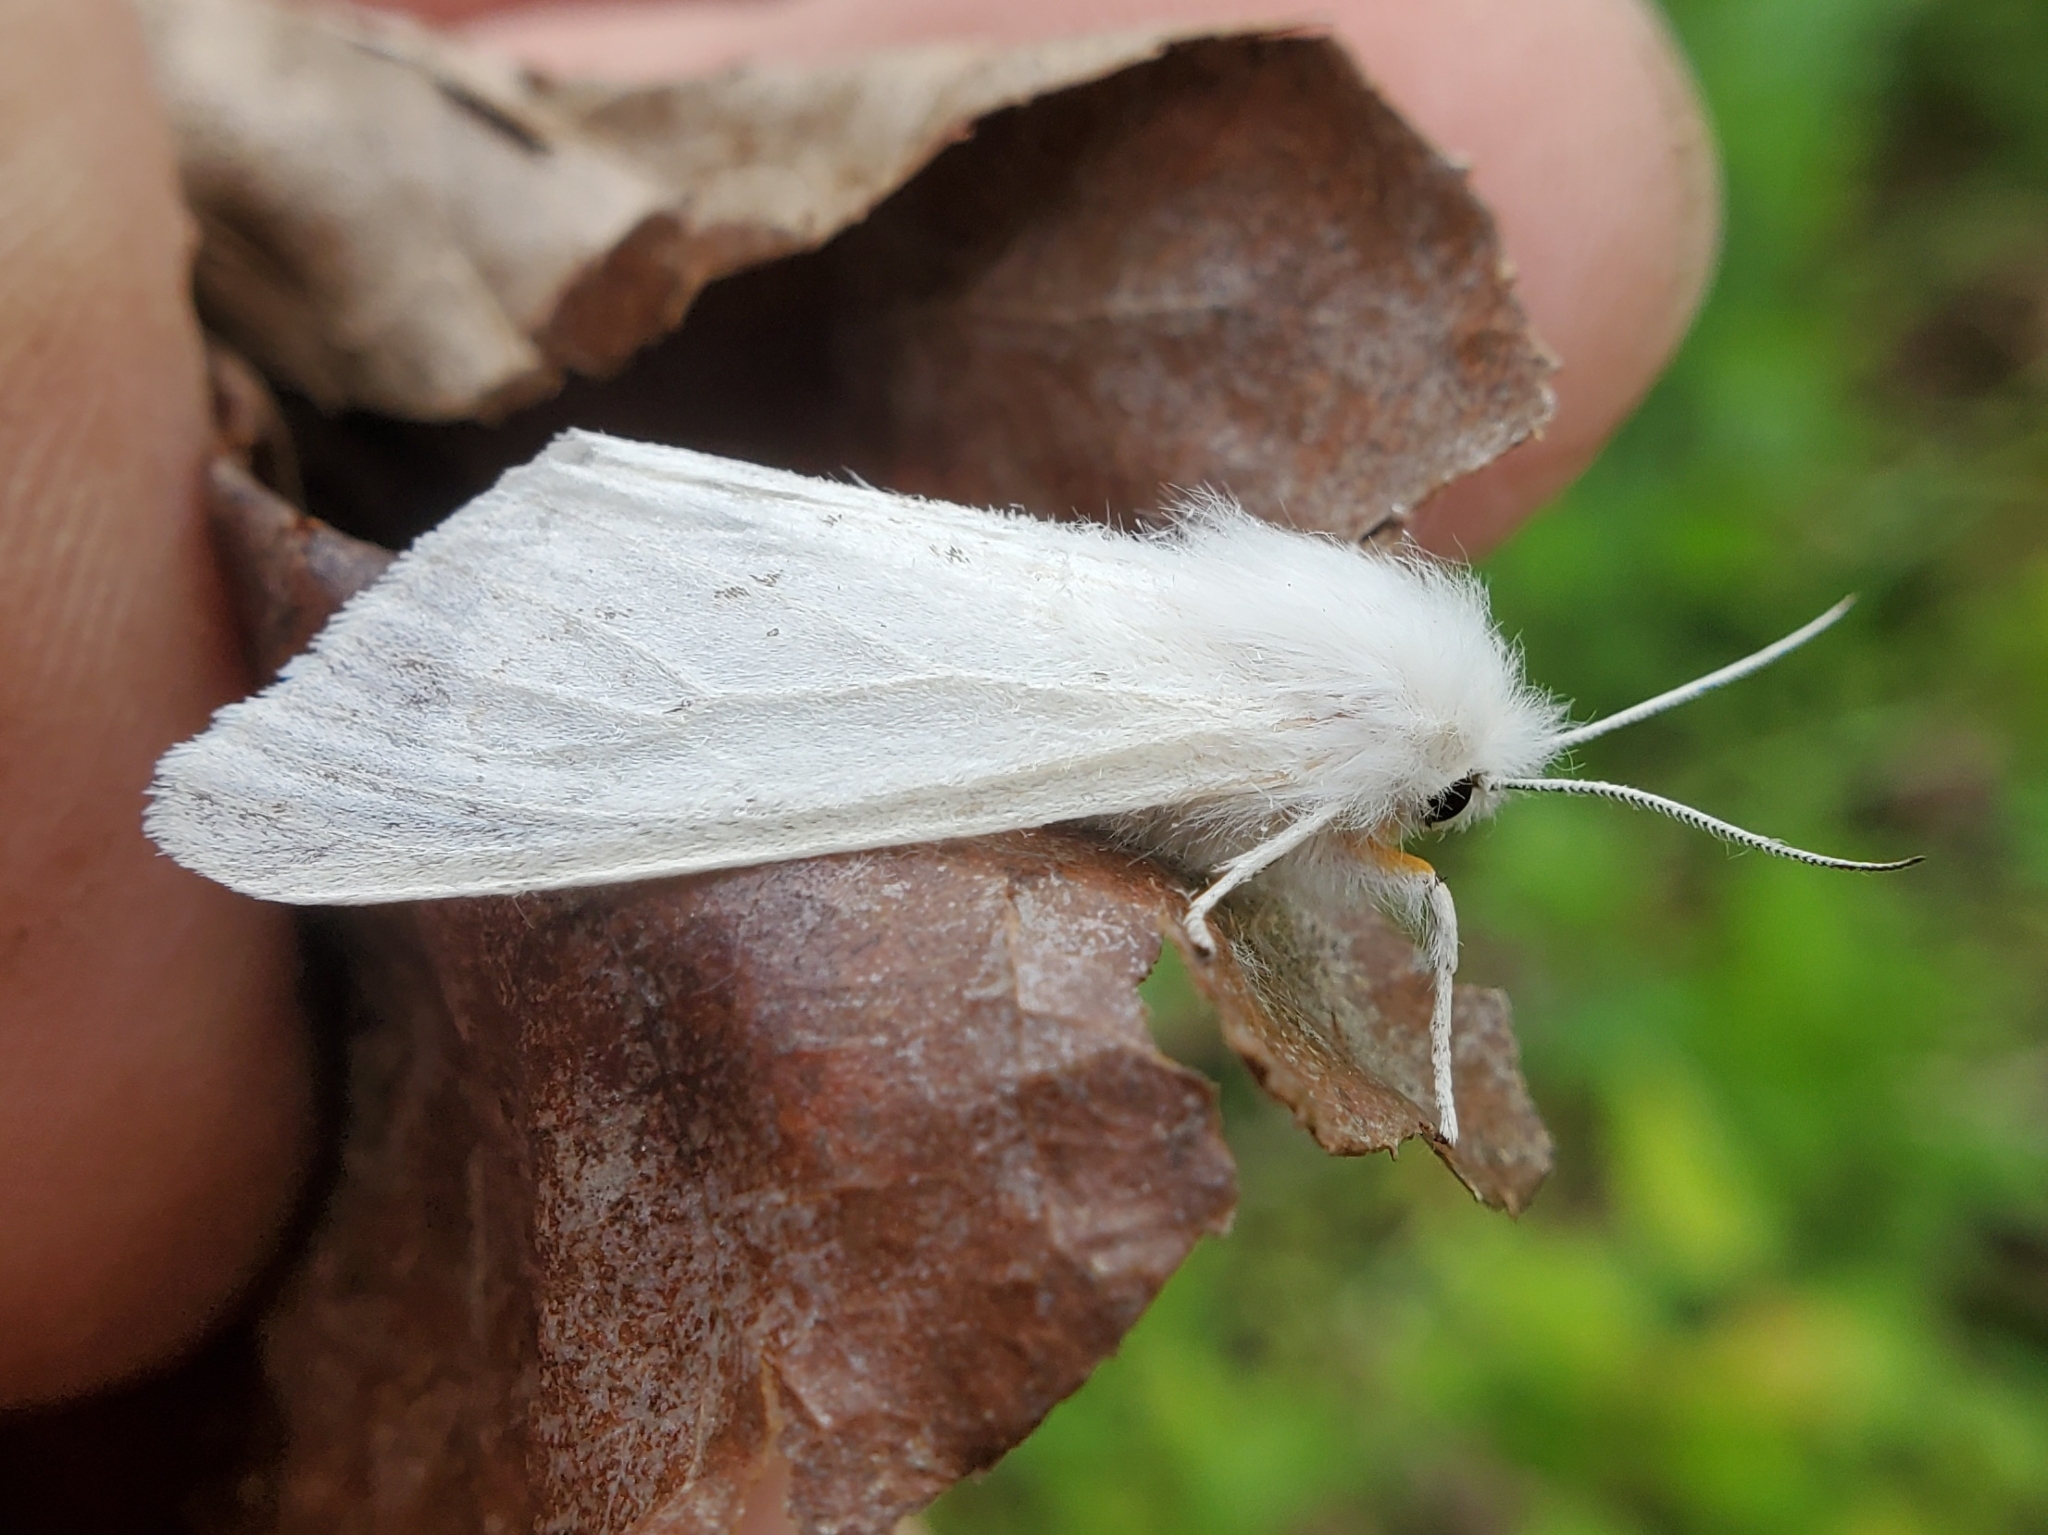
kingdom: Animalia
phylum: Arthropoda
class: Insecta
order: Lepidoptera
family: Erebidae
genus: Spilosoma
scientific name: Spilosoma congrua
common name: Agreeable tiger moth
